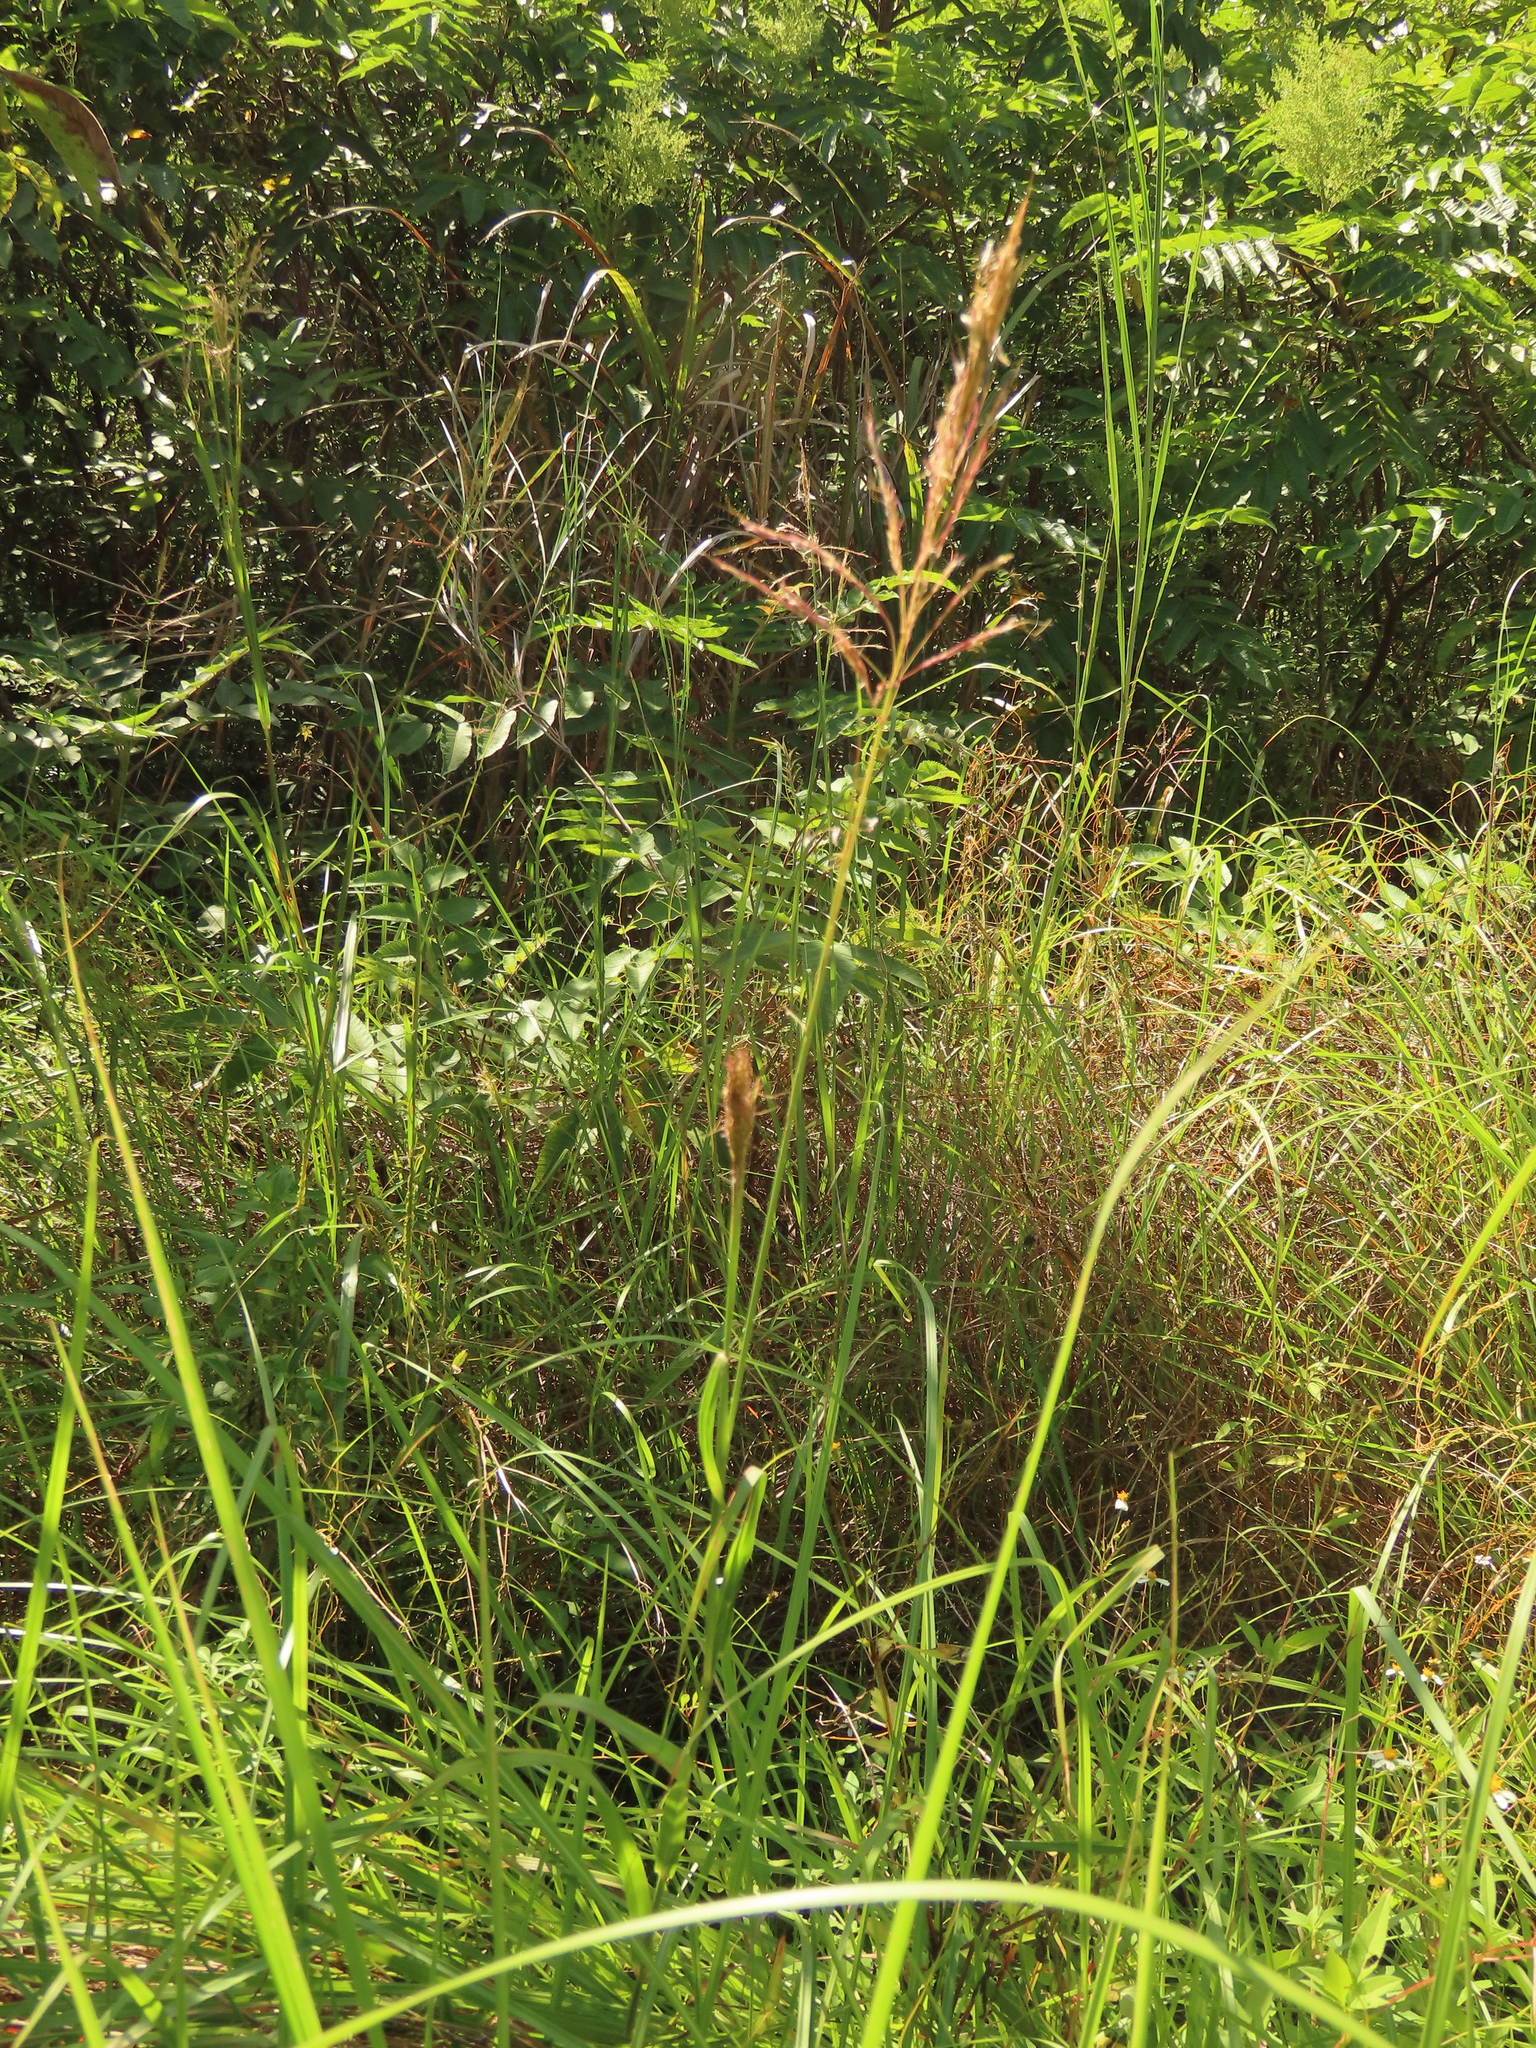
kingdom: Plantae
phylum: Tracheophyta
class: Liliopsida
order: Poales
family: Poaceae
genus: Bothriochloa
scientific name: Bothriochloa glabra
